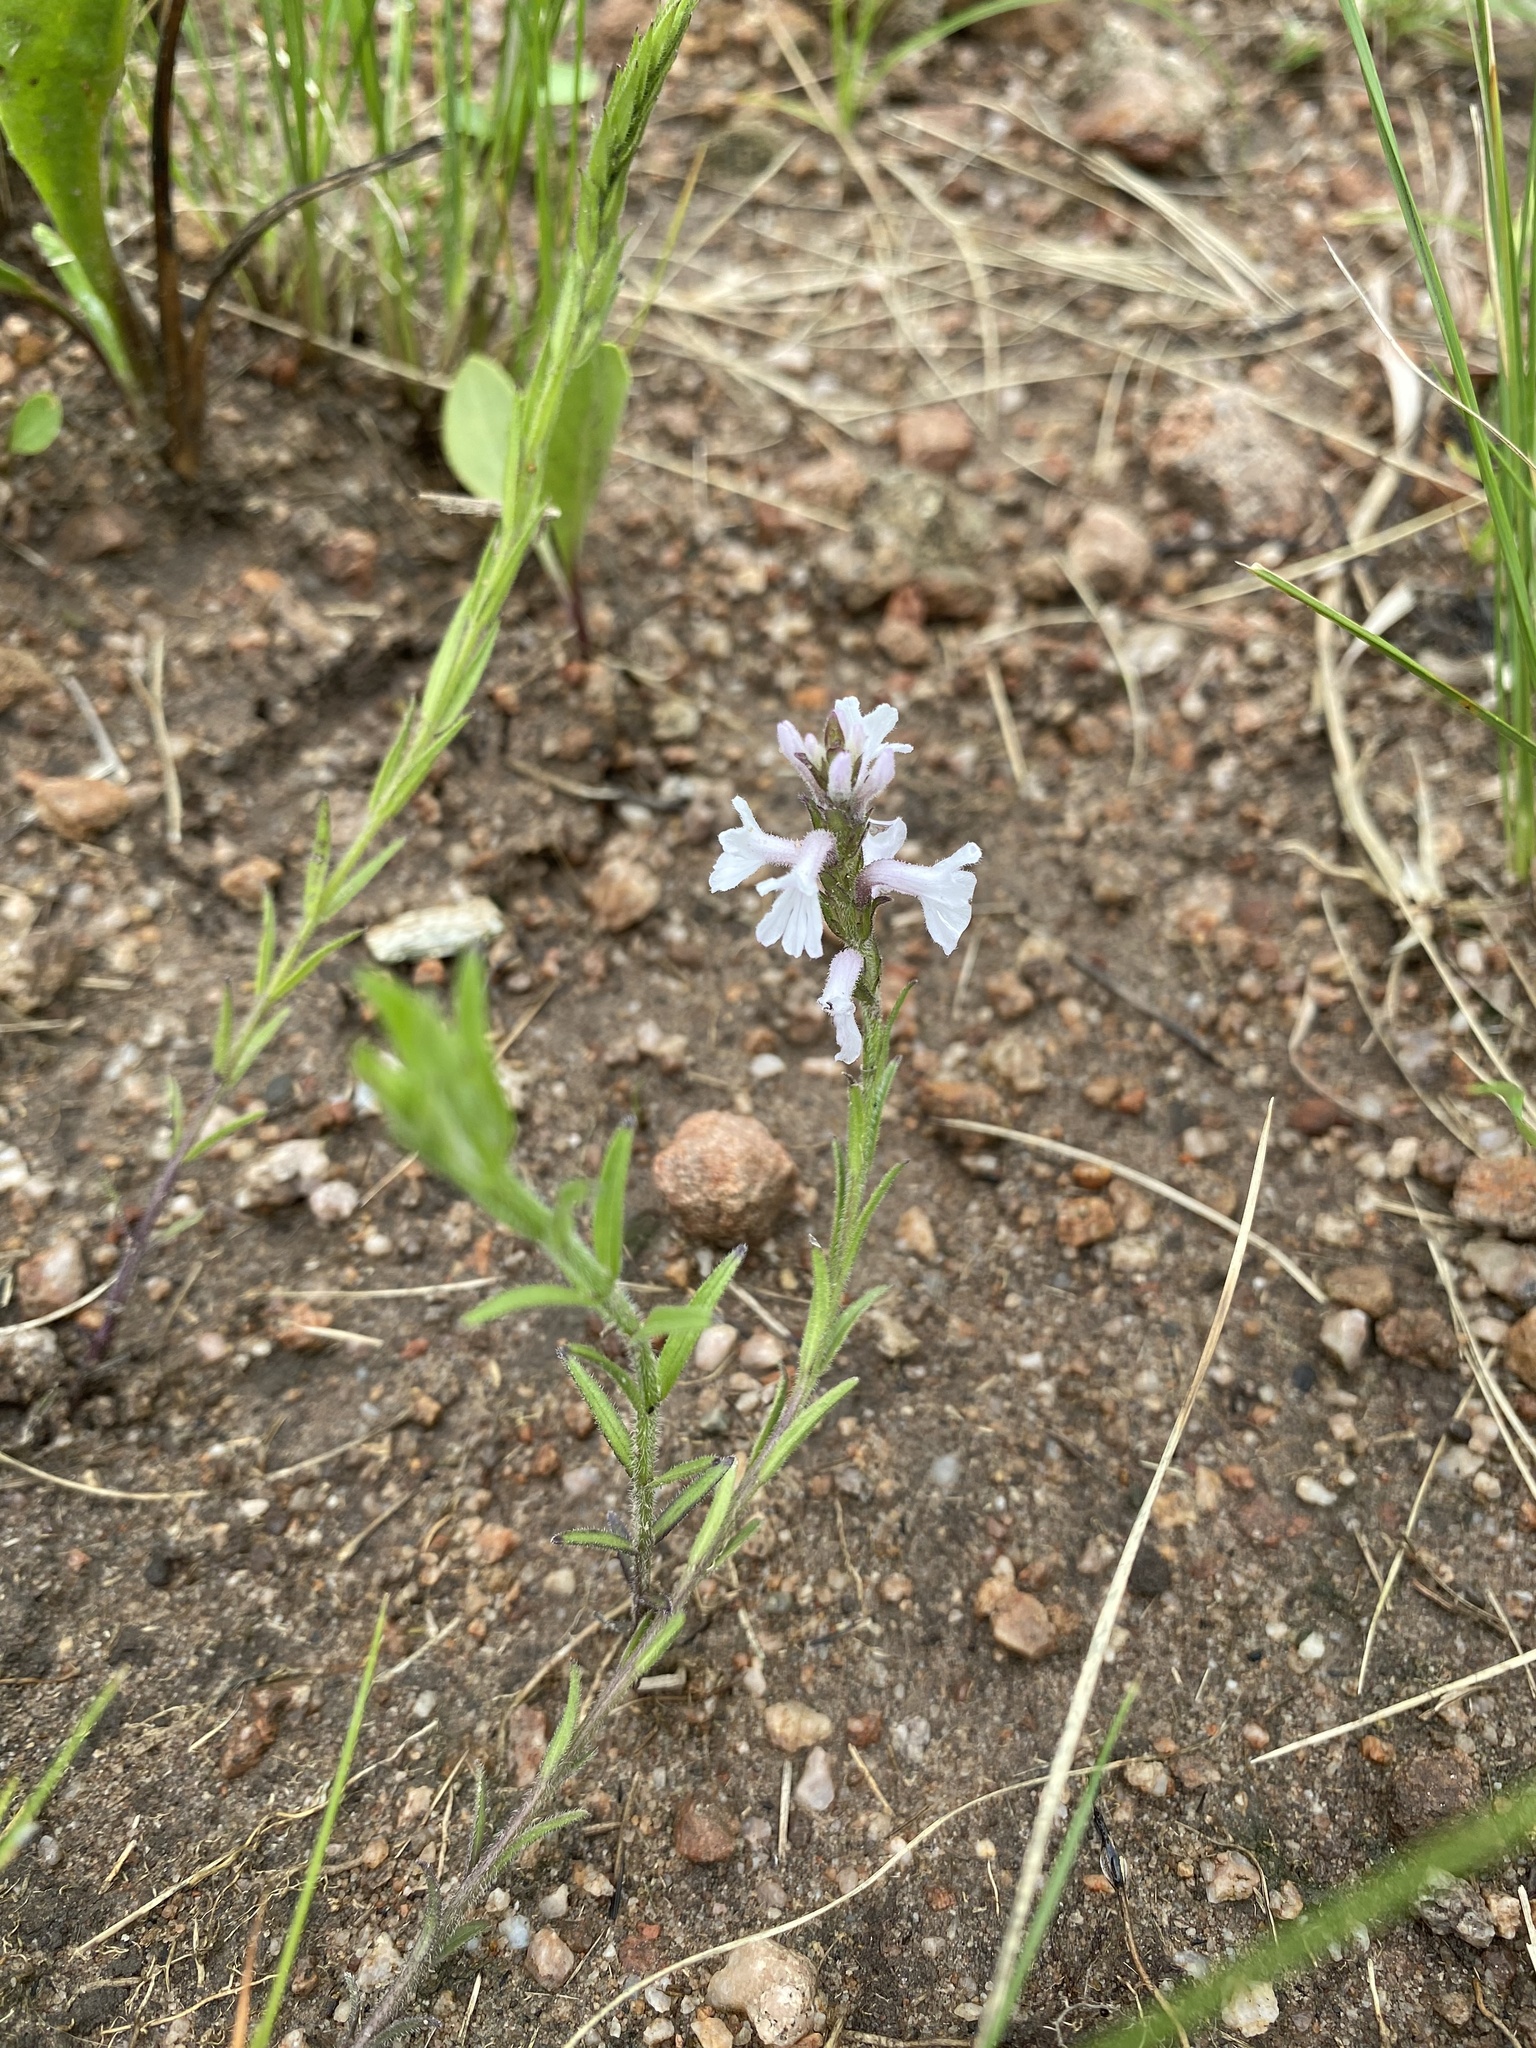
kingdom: Plantae
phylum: Tracheophyta
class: Magnoliopsida
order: Lamiales
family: Orobanchaceae
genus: Striga
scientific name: Striga bilabiata
